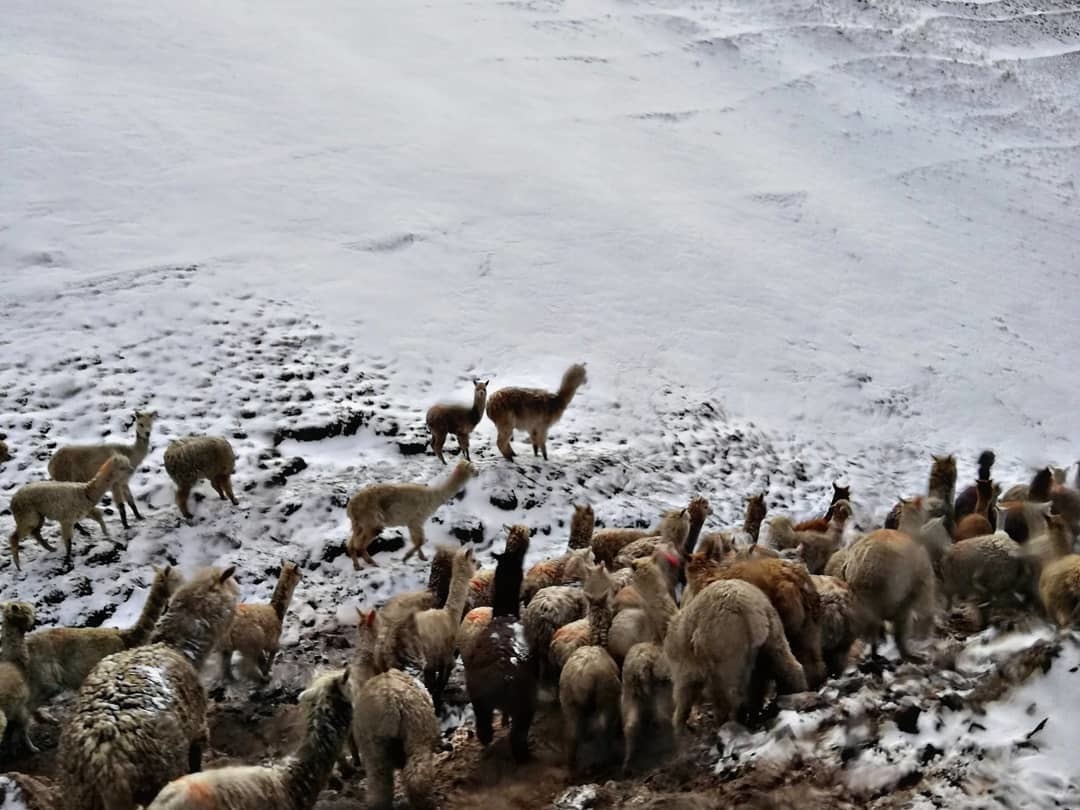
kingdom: Animalia
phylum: Chordata
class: Mammalia
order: Artiodactyla
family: Camelidae
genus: Vicugna
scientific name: Vicugna pacos
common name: Alpaca
